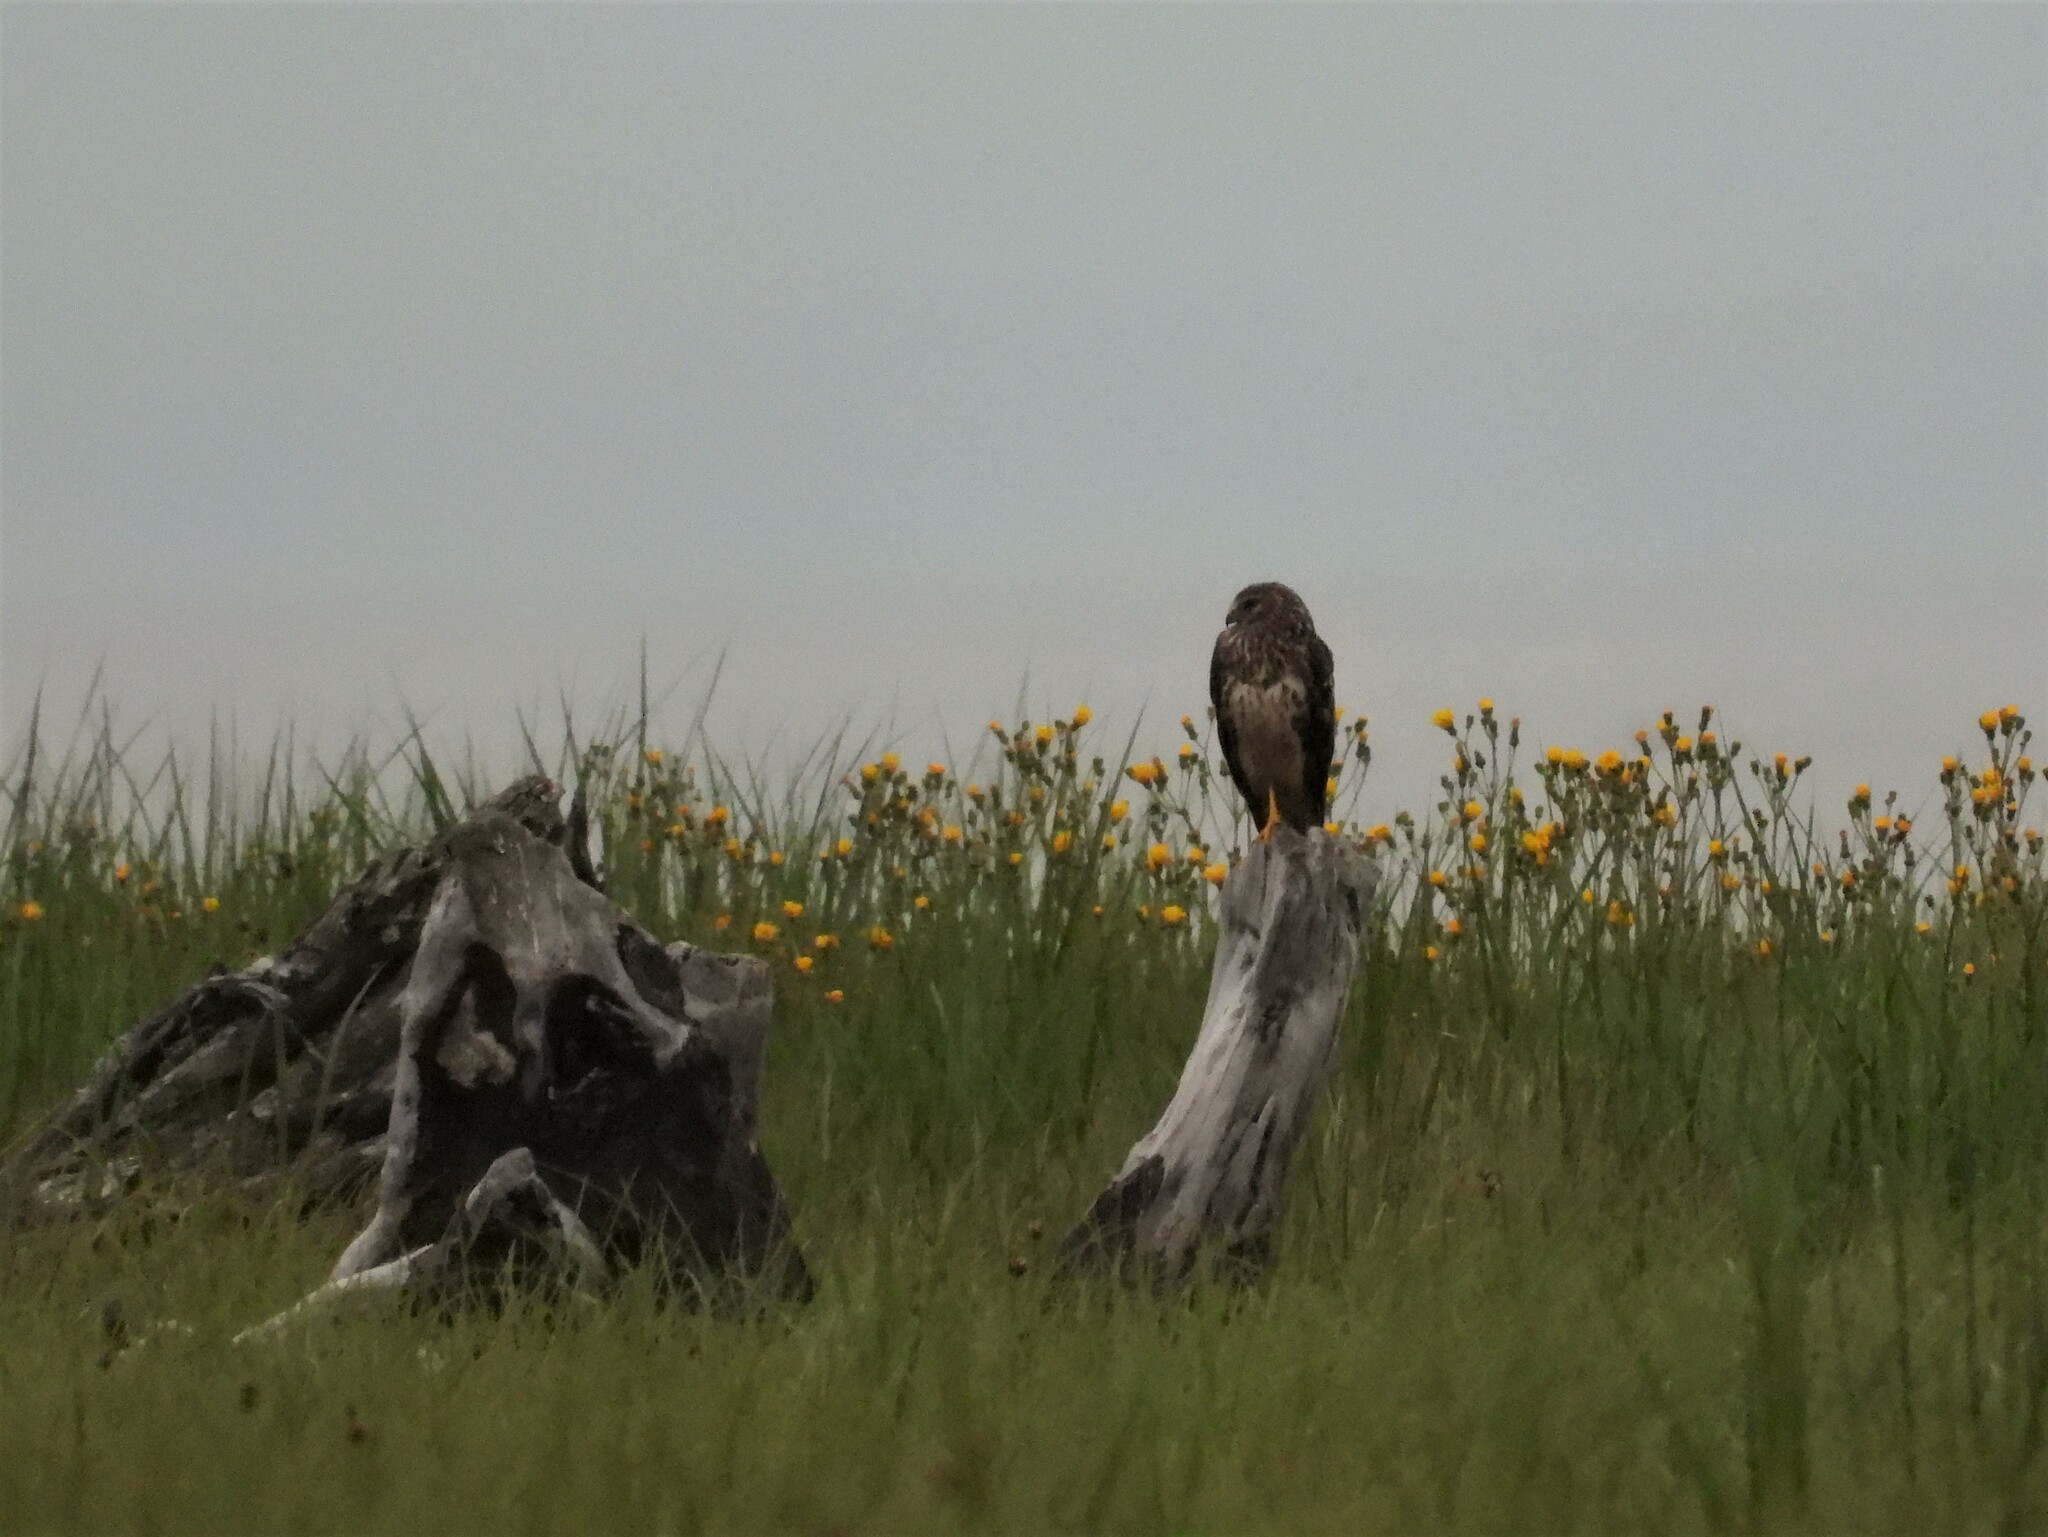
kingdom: Animalia
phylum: Chordata
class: Aves
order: Accipitriformes
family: Accipitridae
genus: Circus
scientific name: Circus cyaneus
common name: Hen harrier
